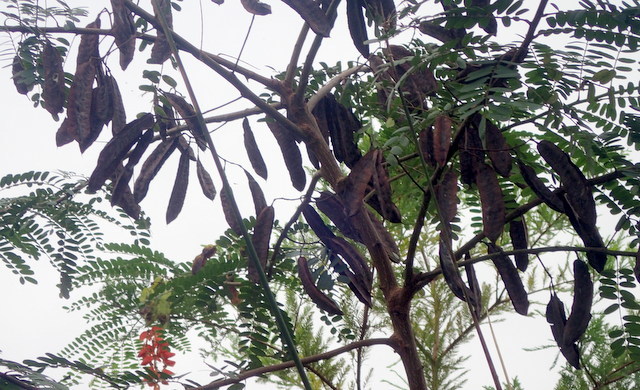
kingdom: Plantae
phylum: Tracheophyta
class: Magnoliopsida
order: Fabales
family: Fabaceae
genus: Sesbania
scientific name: Sesbania punicea
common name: Rattlebox
